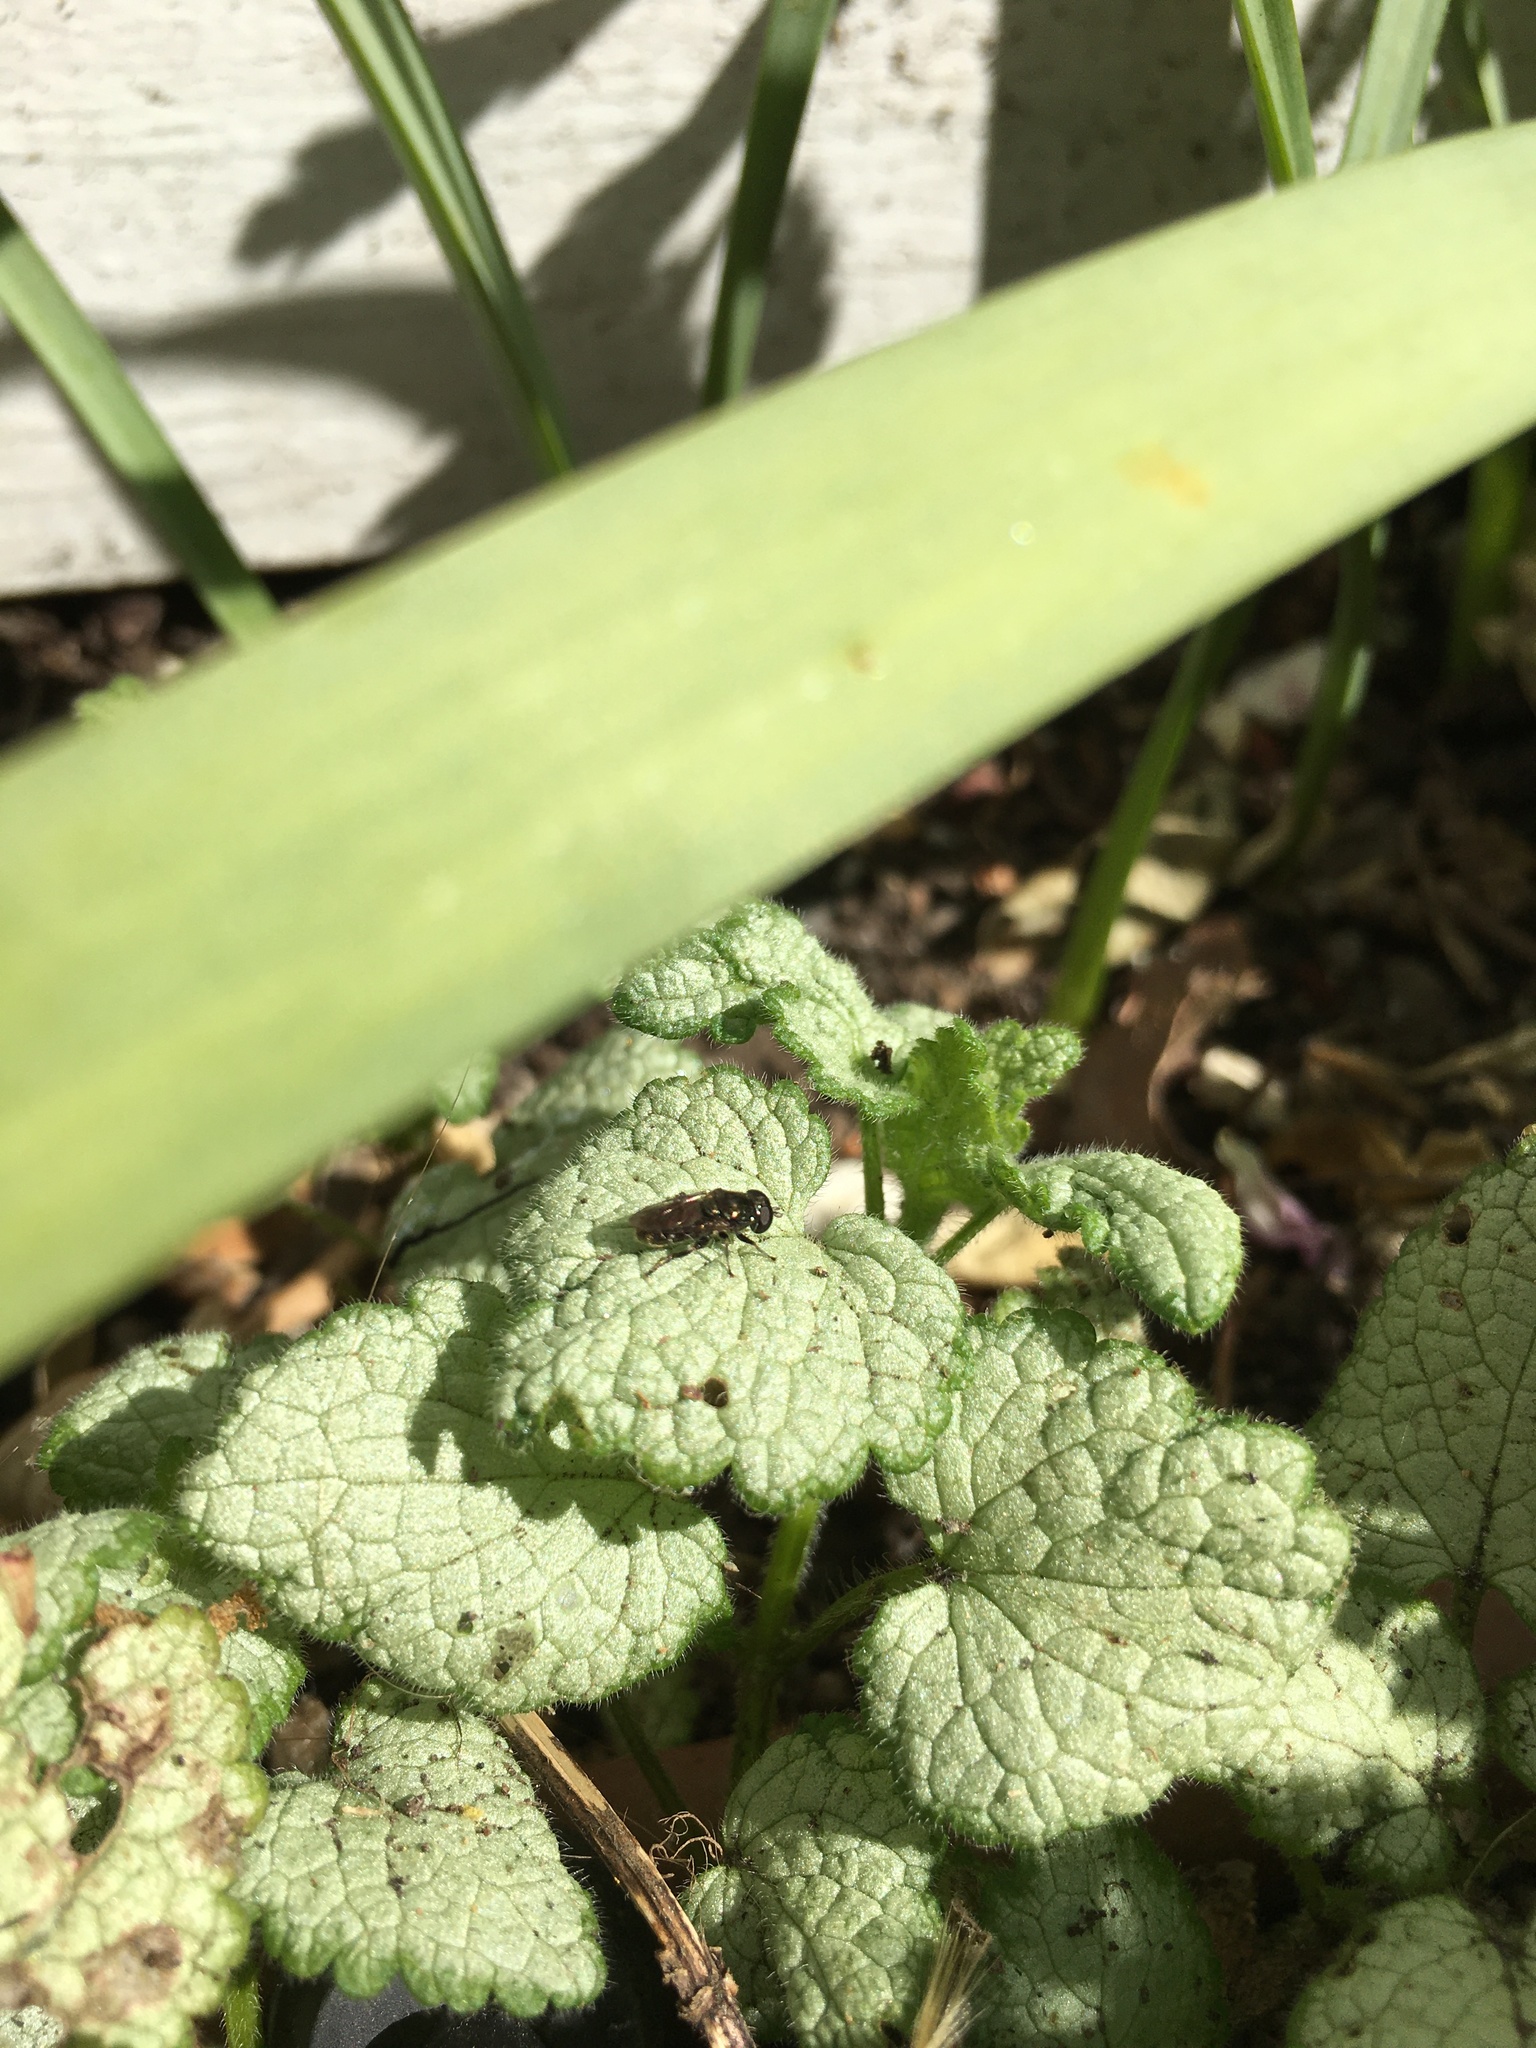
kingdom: Animalia
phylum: Arthropoda
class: Insecta
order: Diptera
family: Syrphidae
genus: Eumerus
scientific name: Eumerus
